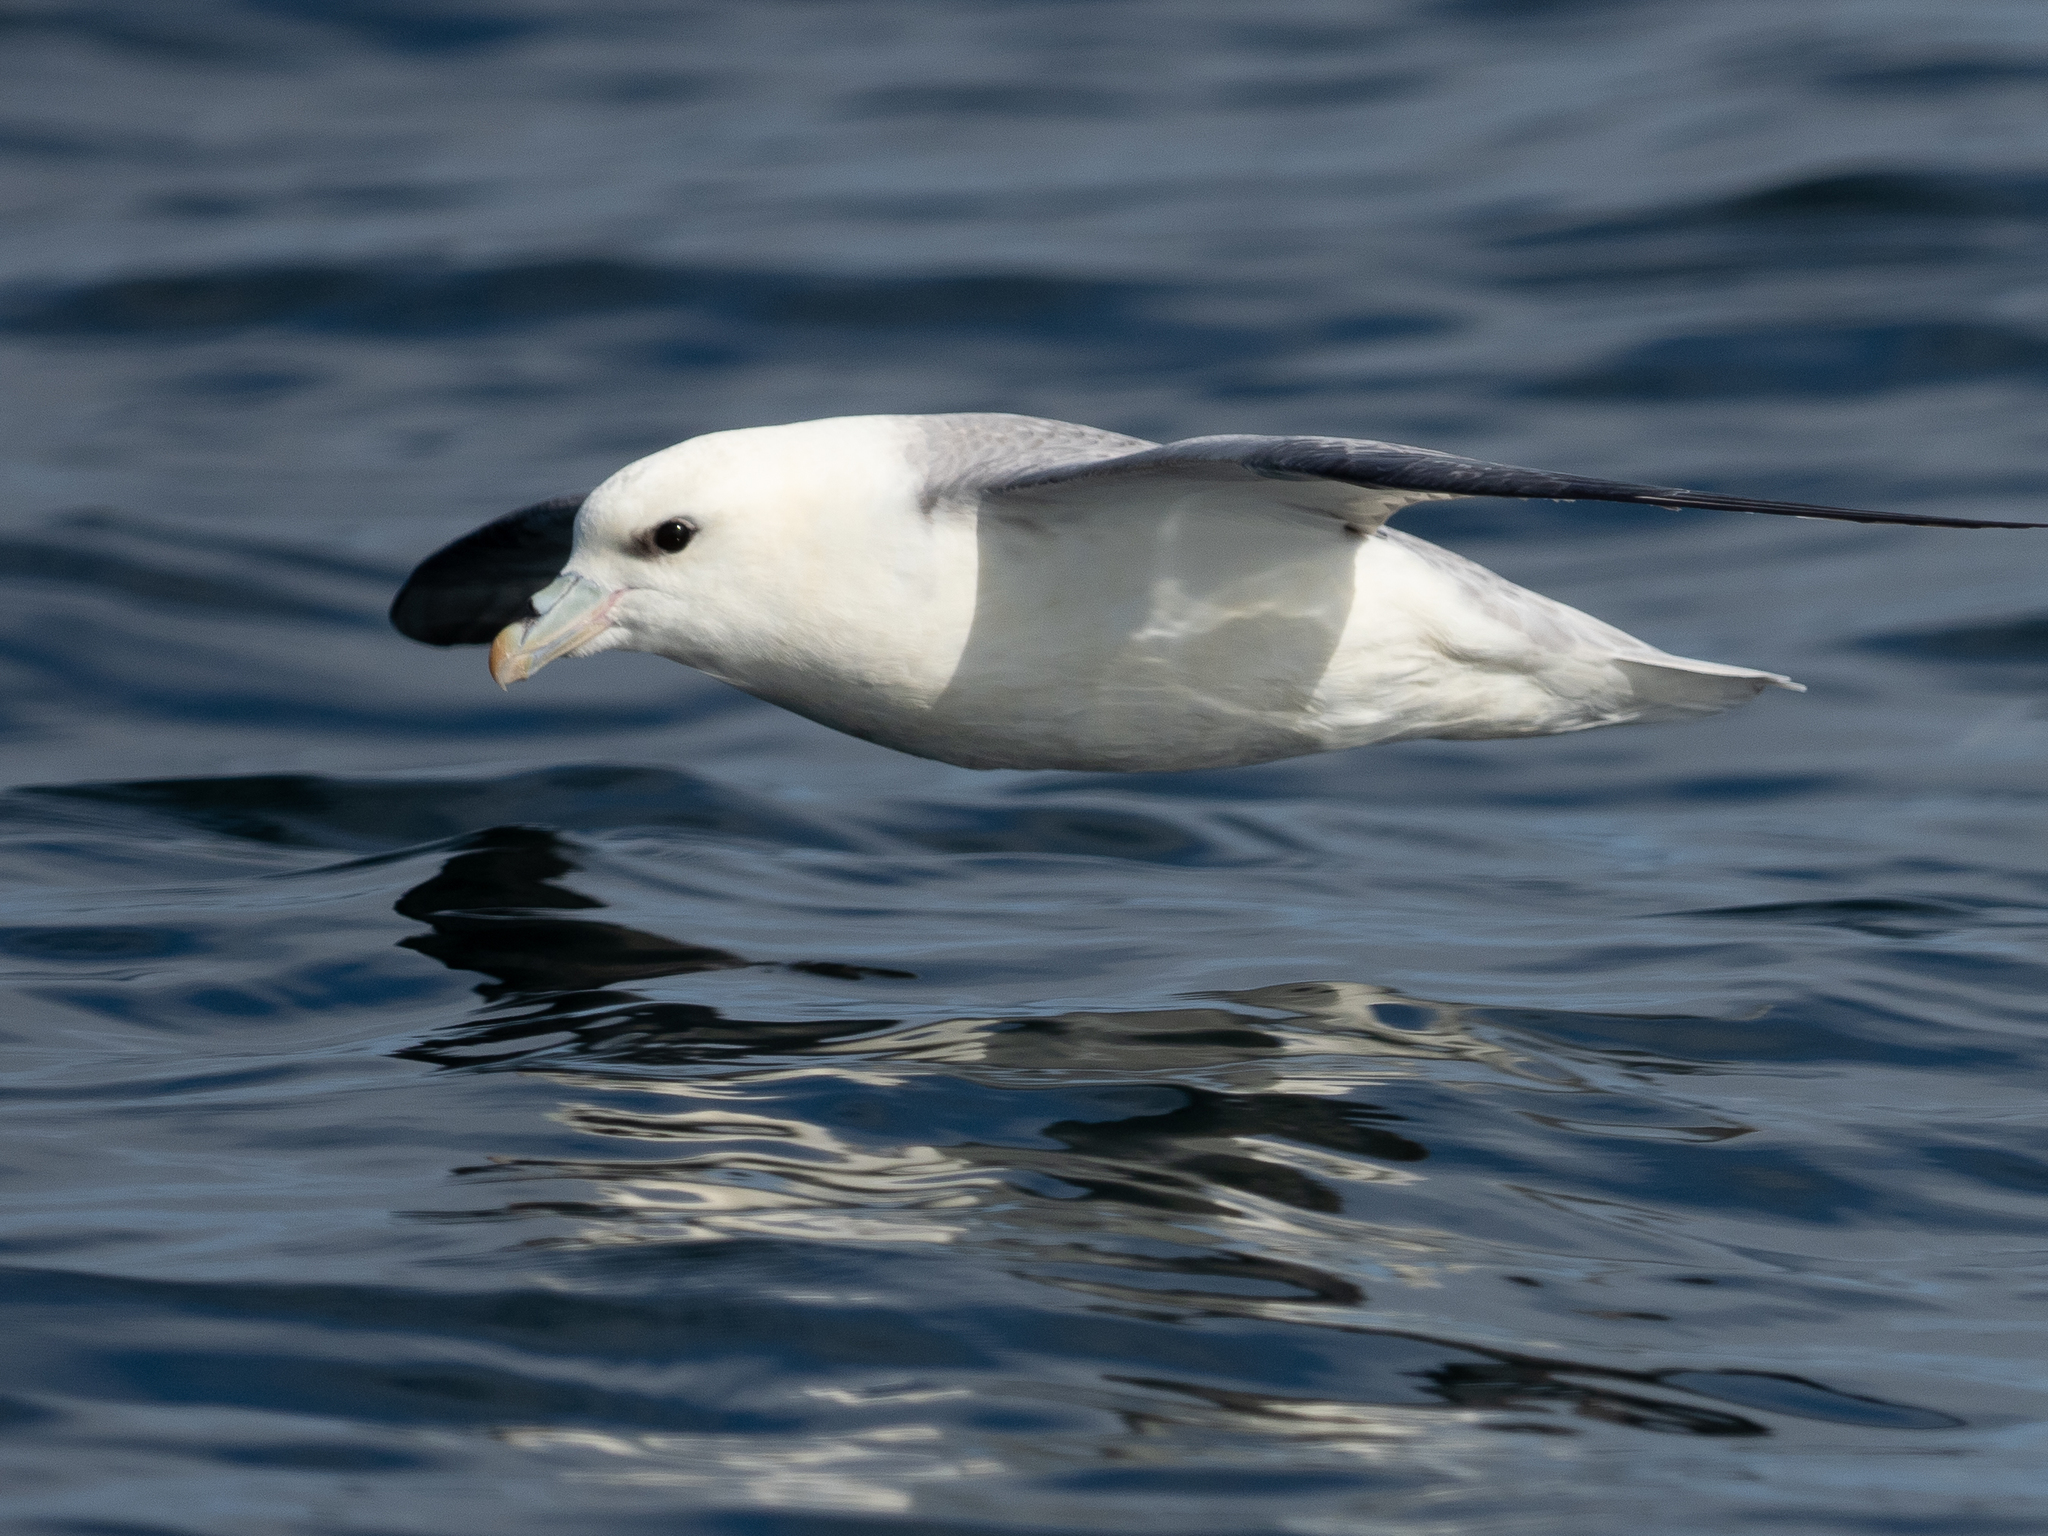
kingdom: Animalia
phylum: Chordata
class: Aves
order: Procellariiformes
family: Procellariidae
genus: Fulmarus
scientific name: Fulmarus glacialis
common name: Northern fulmar
